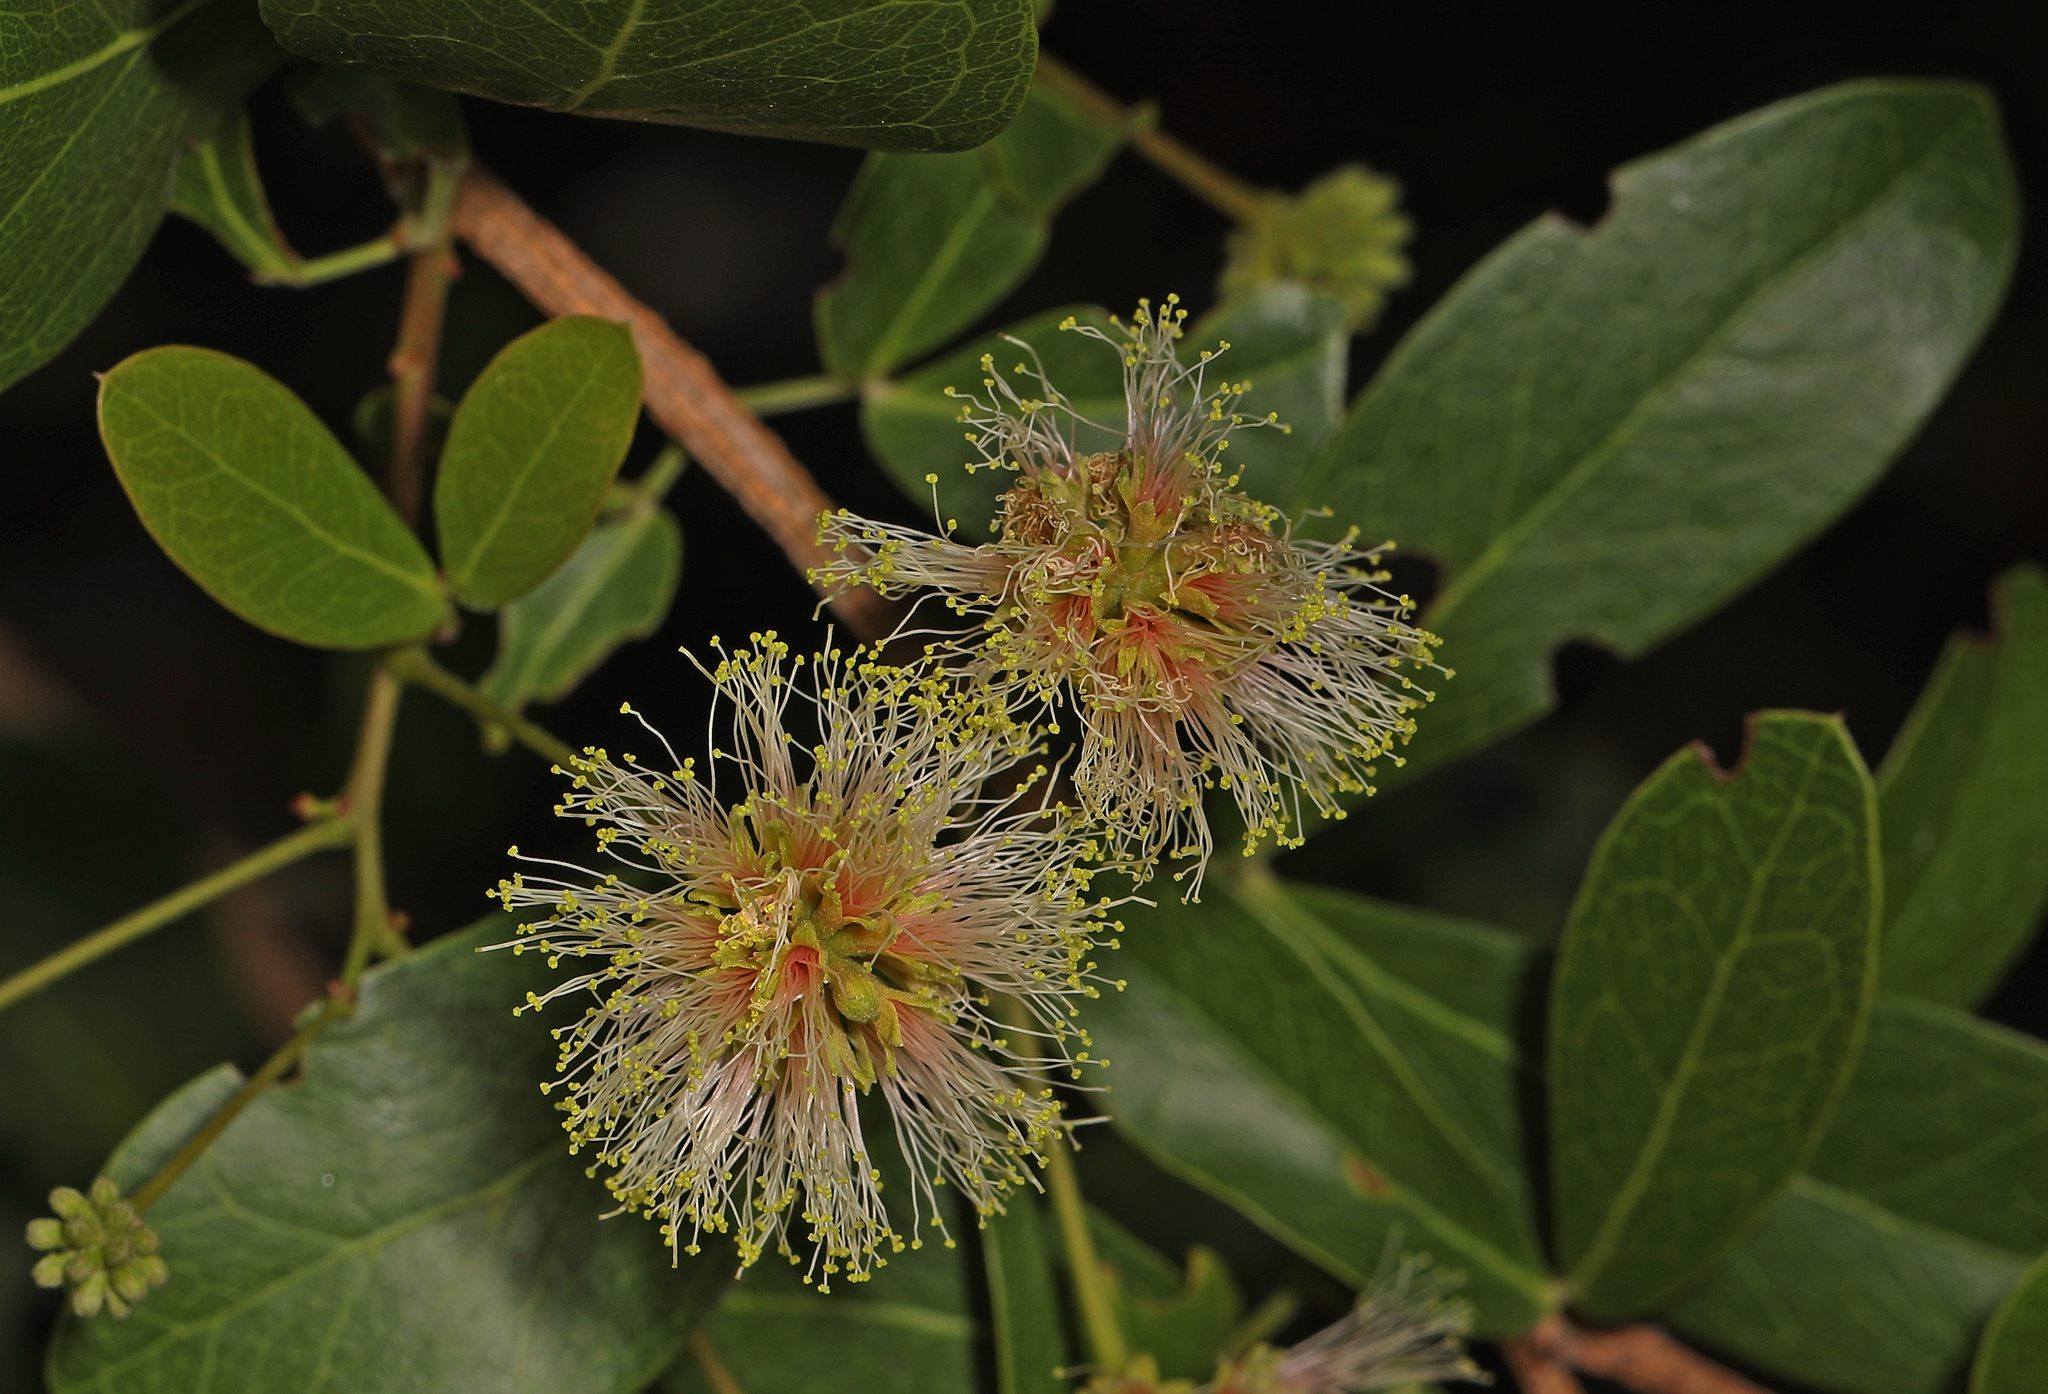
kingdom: Plantae
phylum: Tracheophyta
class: Magnoliopsida
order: Fabales
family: Fabaceae
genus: Pithecellobium
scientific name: Pithecellobium keyense
